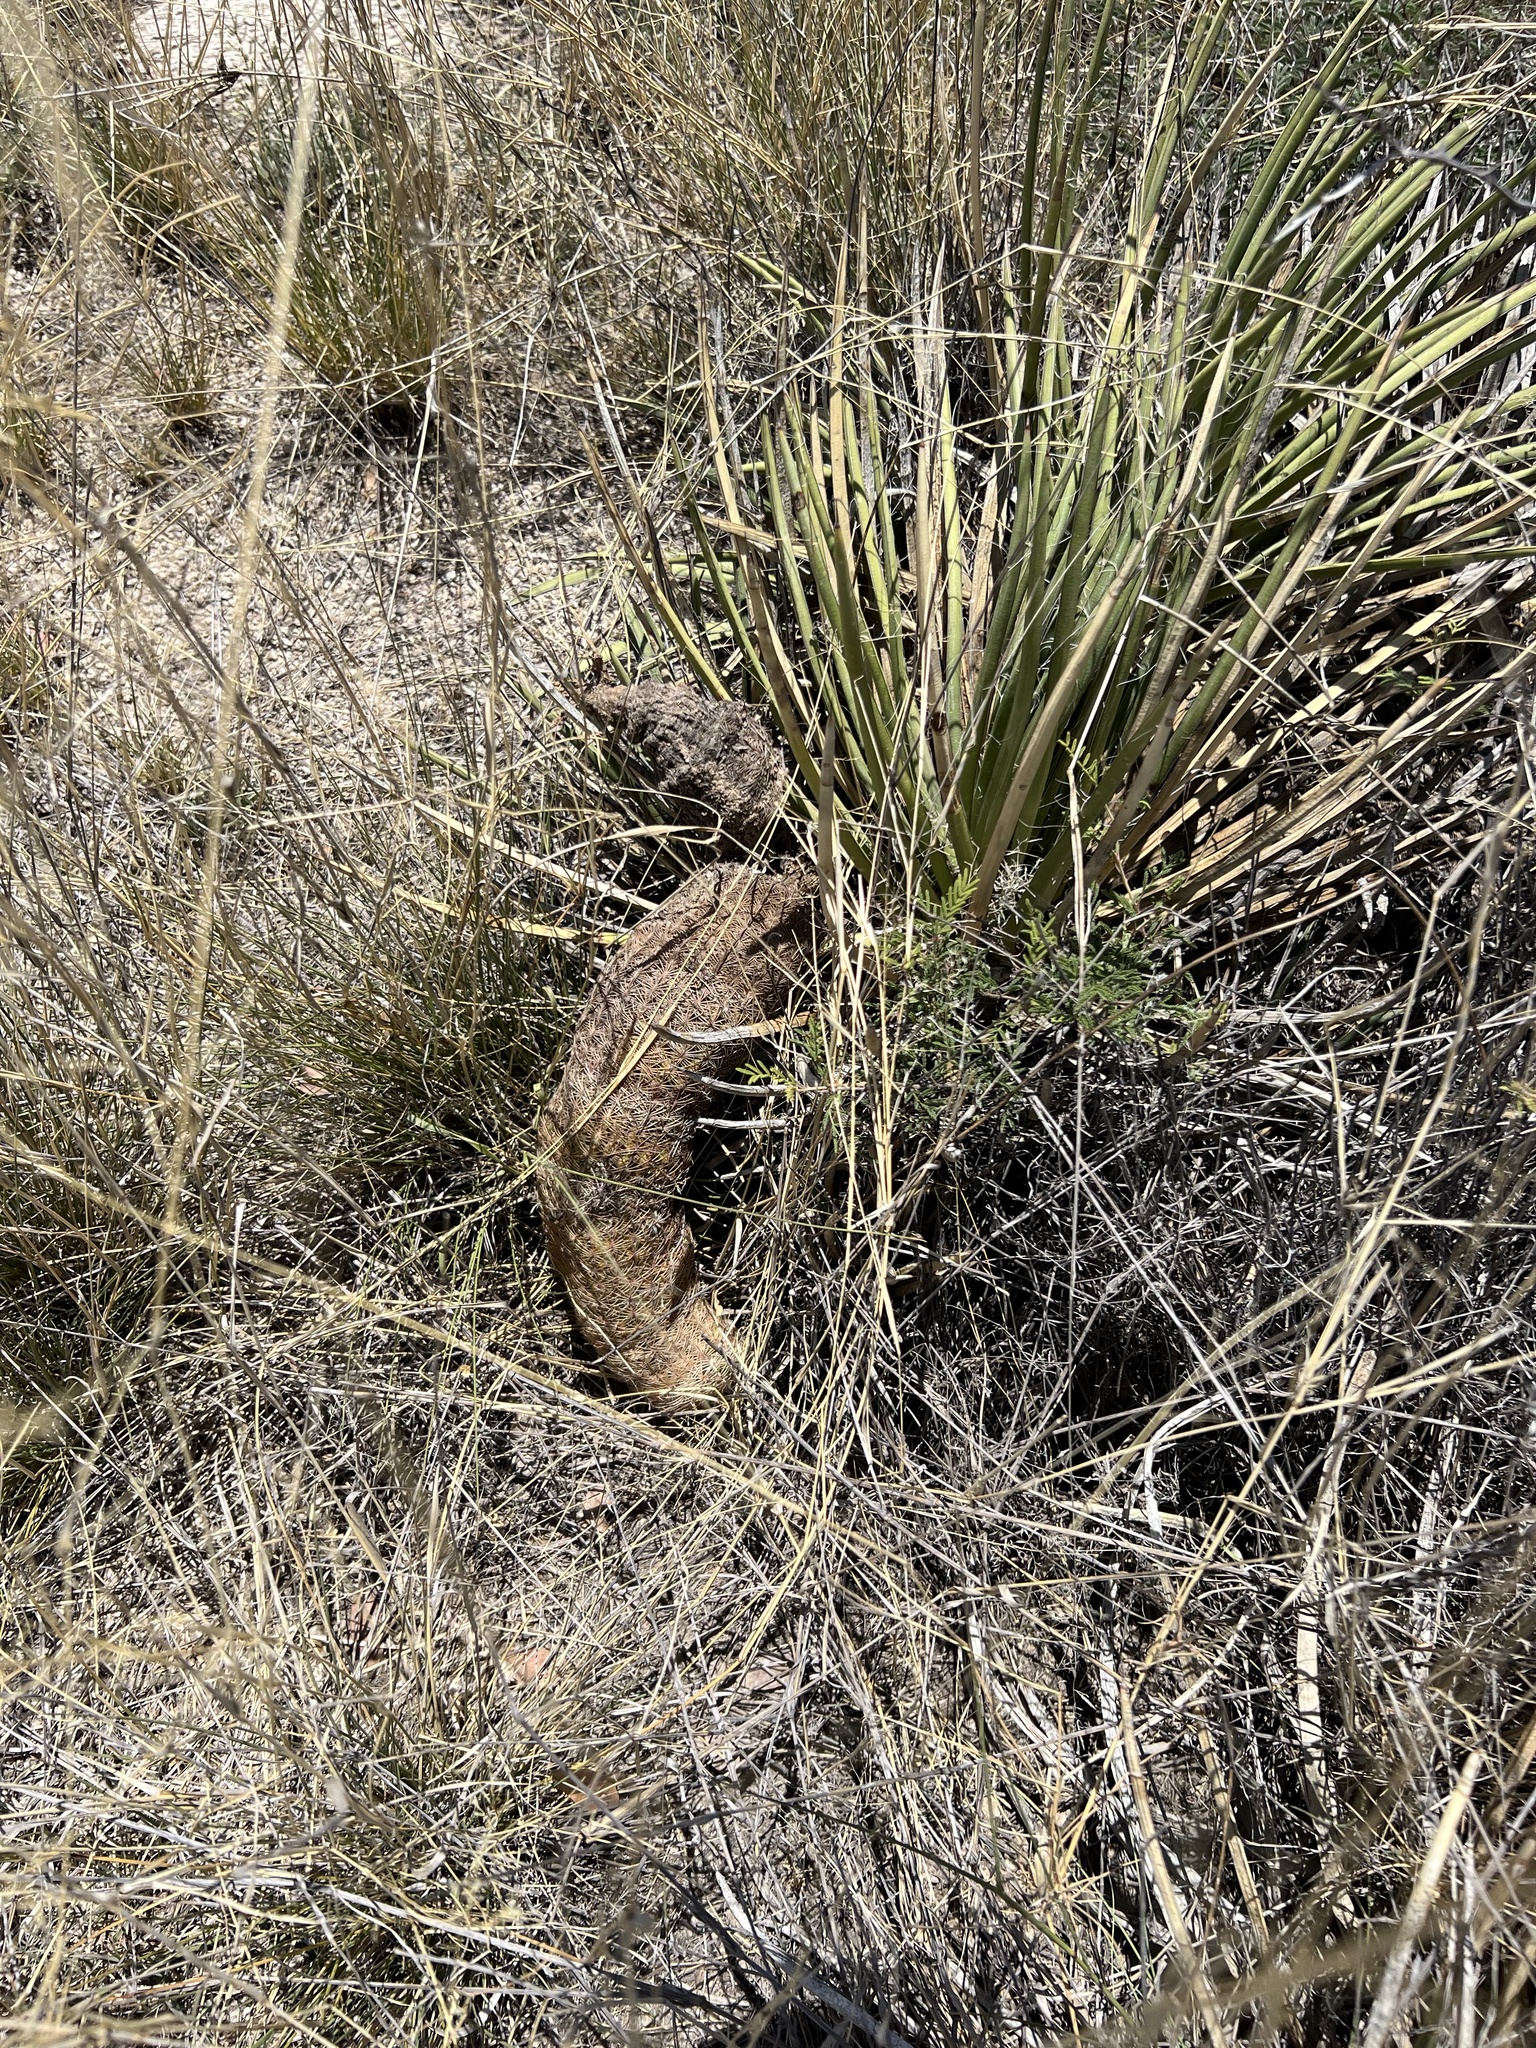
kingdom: Plantae
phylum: Tracheophyta
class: Magnoliopsida
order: Caryophyllales
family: Cactaceae
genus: Echinocereus
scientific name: Echinocereus rigidissimus
